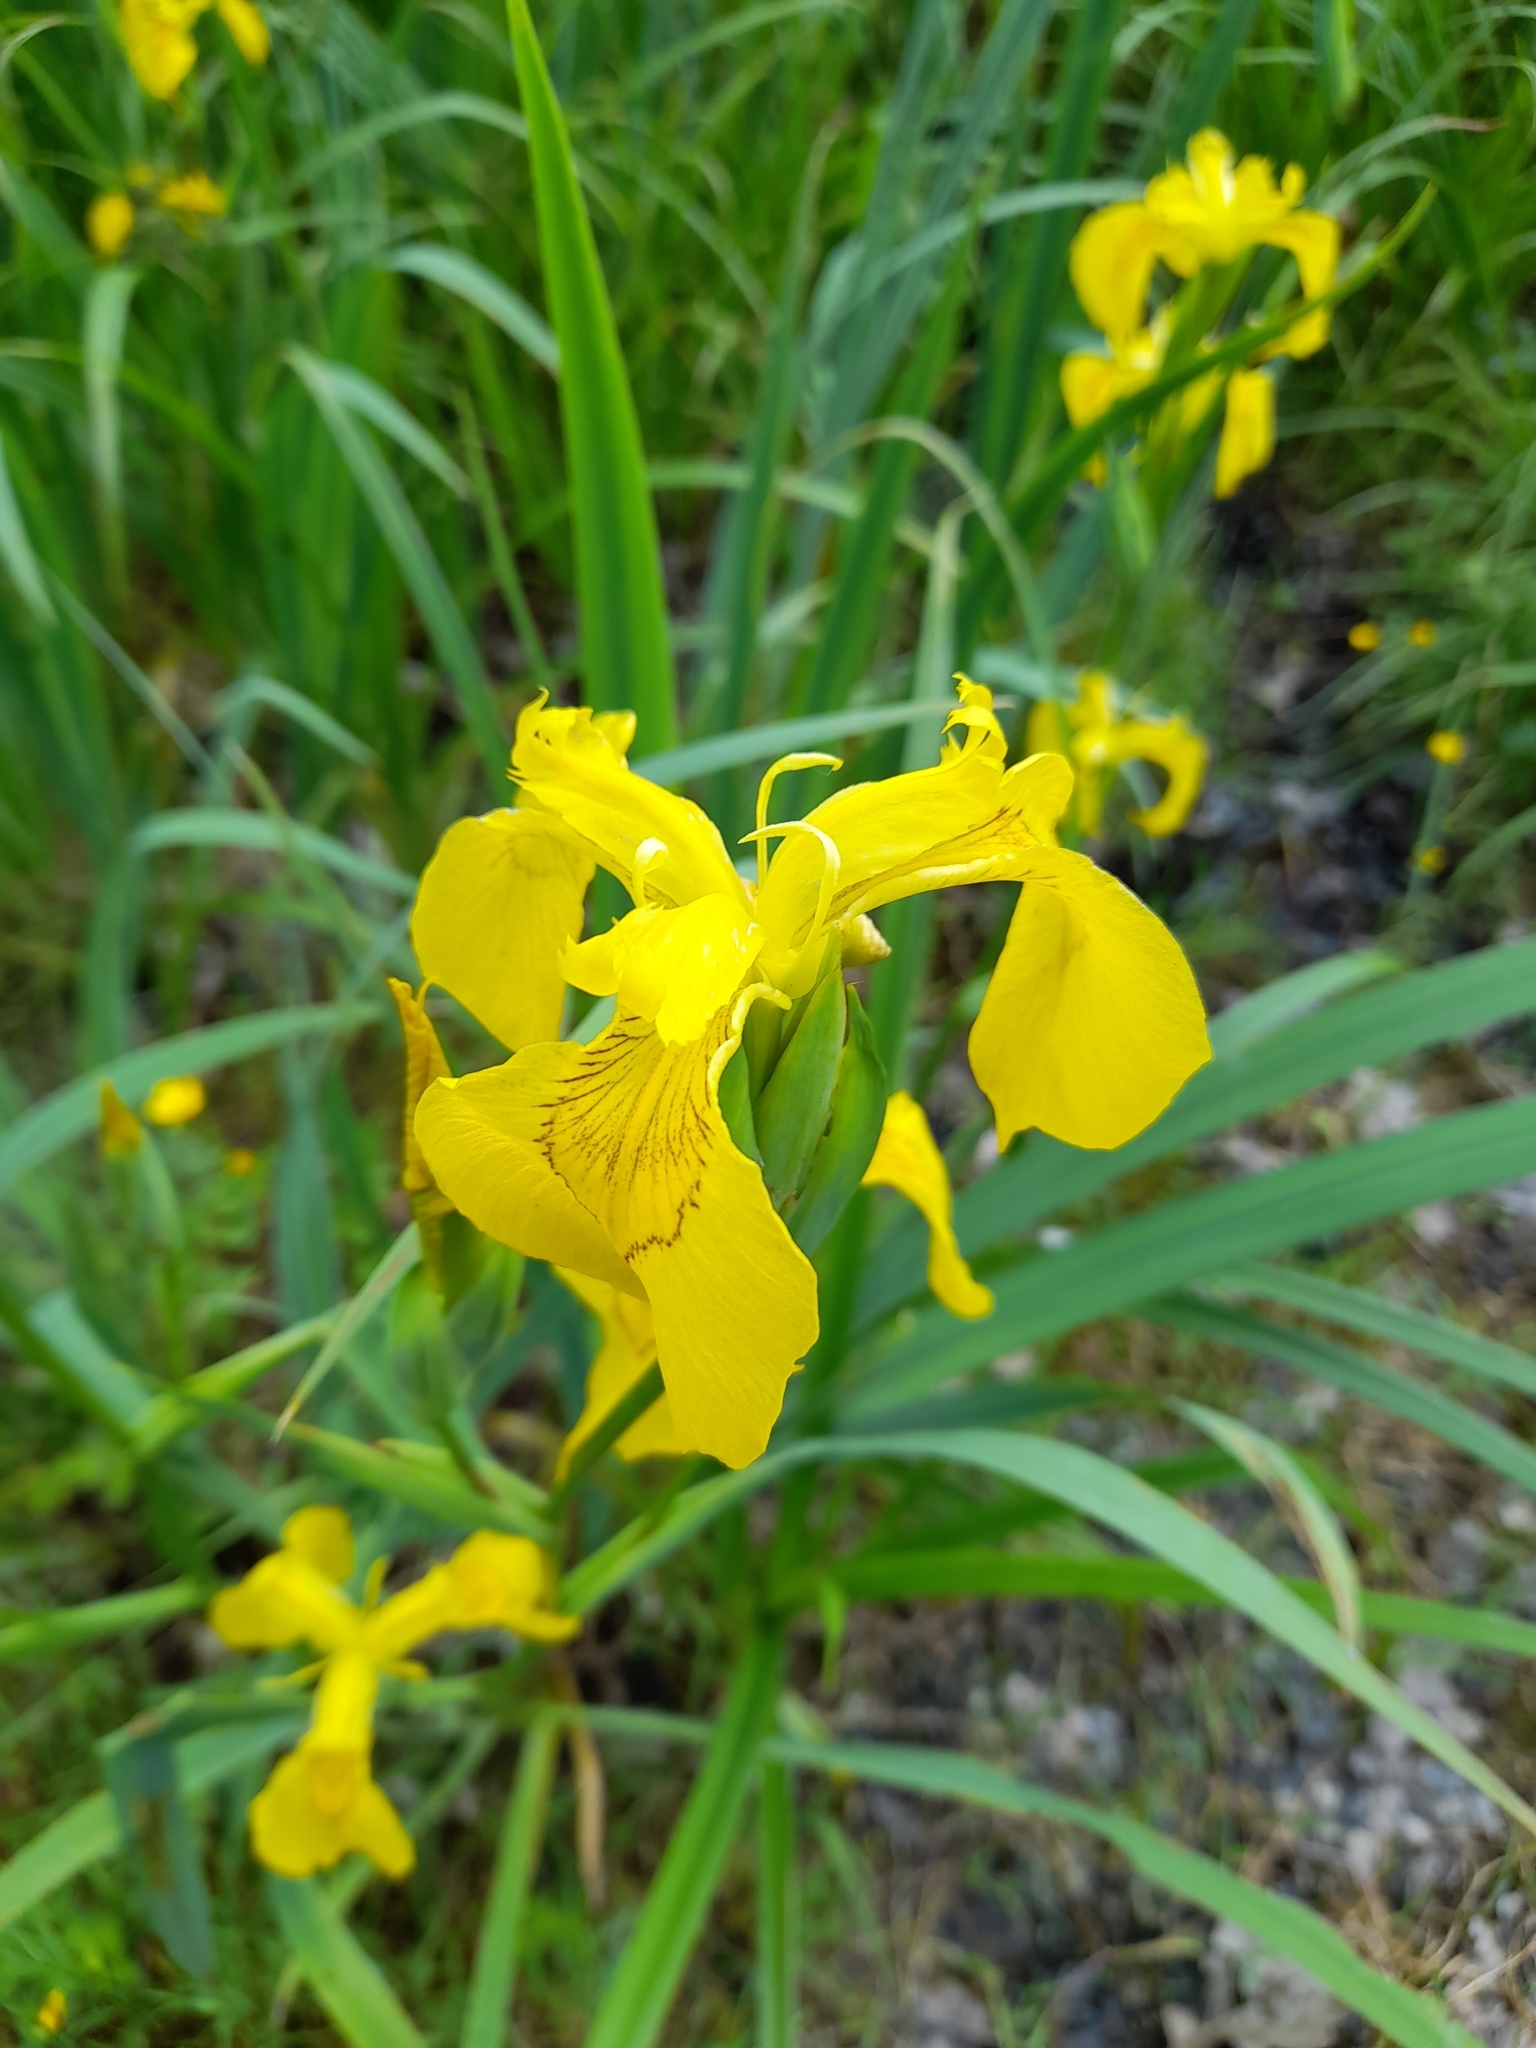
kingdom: Plantae
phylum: Tracheophyta
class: Liliopsida
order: Asparagales
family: Iridaceae
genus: Iris
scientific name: Iris pseudacorus
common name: Yellow flag
